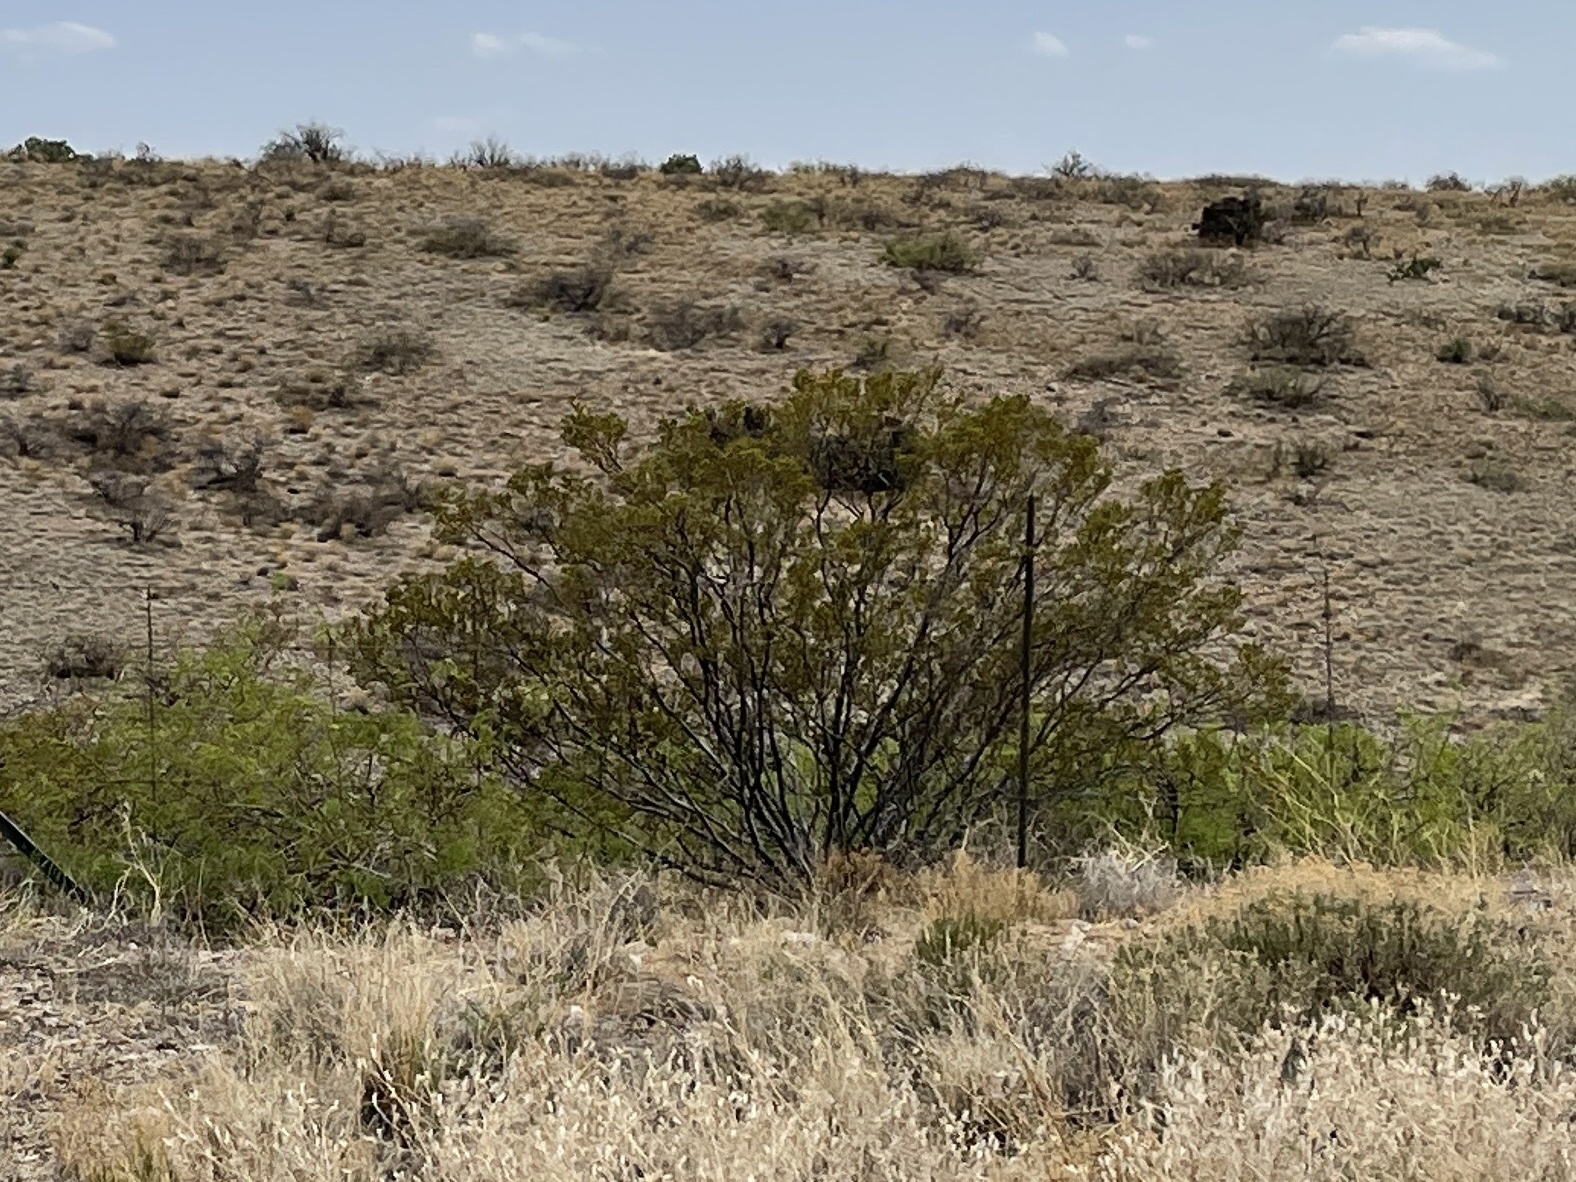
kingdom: Plantae
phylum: Tracheophyta
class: Magnoliopsida
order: Zygophyllales
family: Zygophyllaceae
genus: Larrea
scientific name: Larrea tridentata
